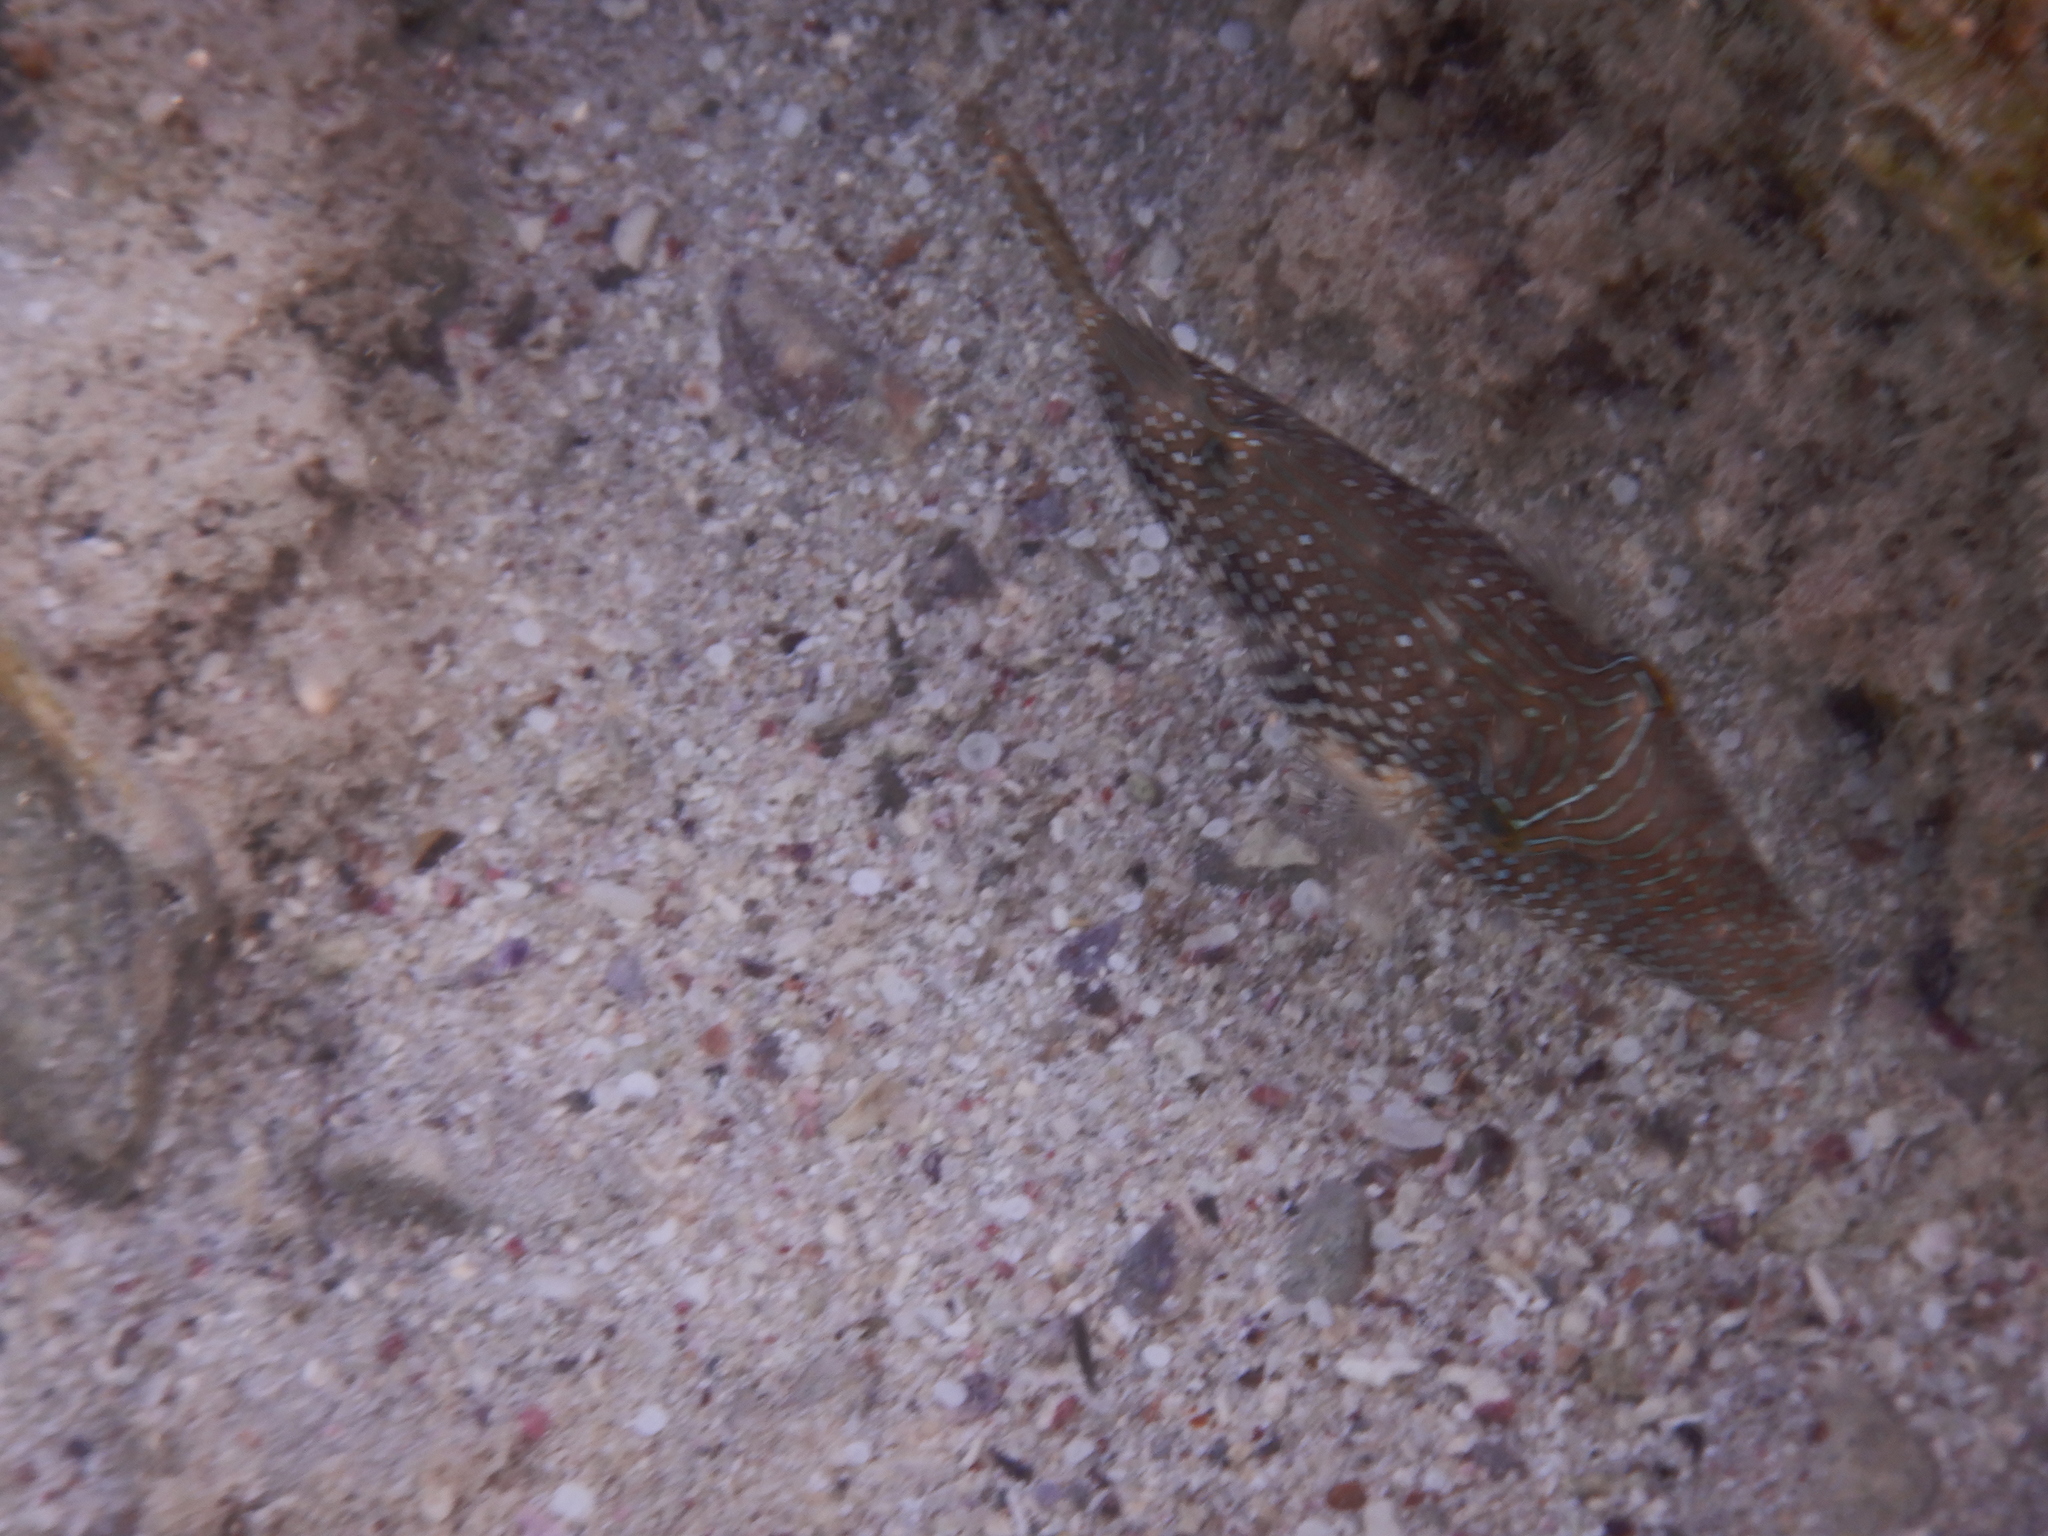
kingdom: Animalia
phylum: Chordata
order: Tetraodontiformes
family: Tetraodontidae
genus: Canthigaster
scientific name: Canthigaster margaritata
